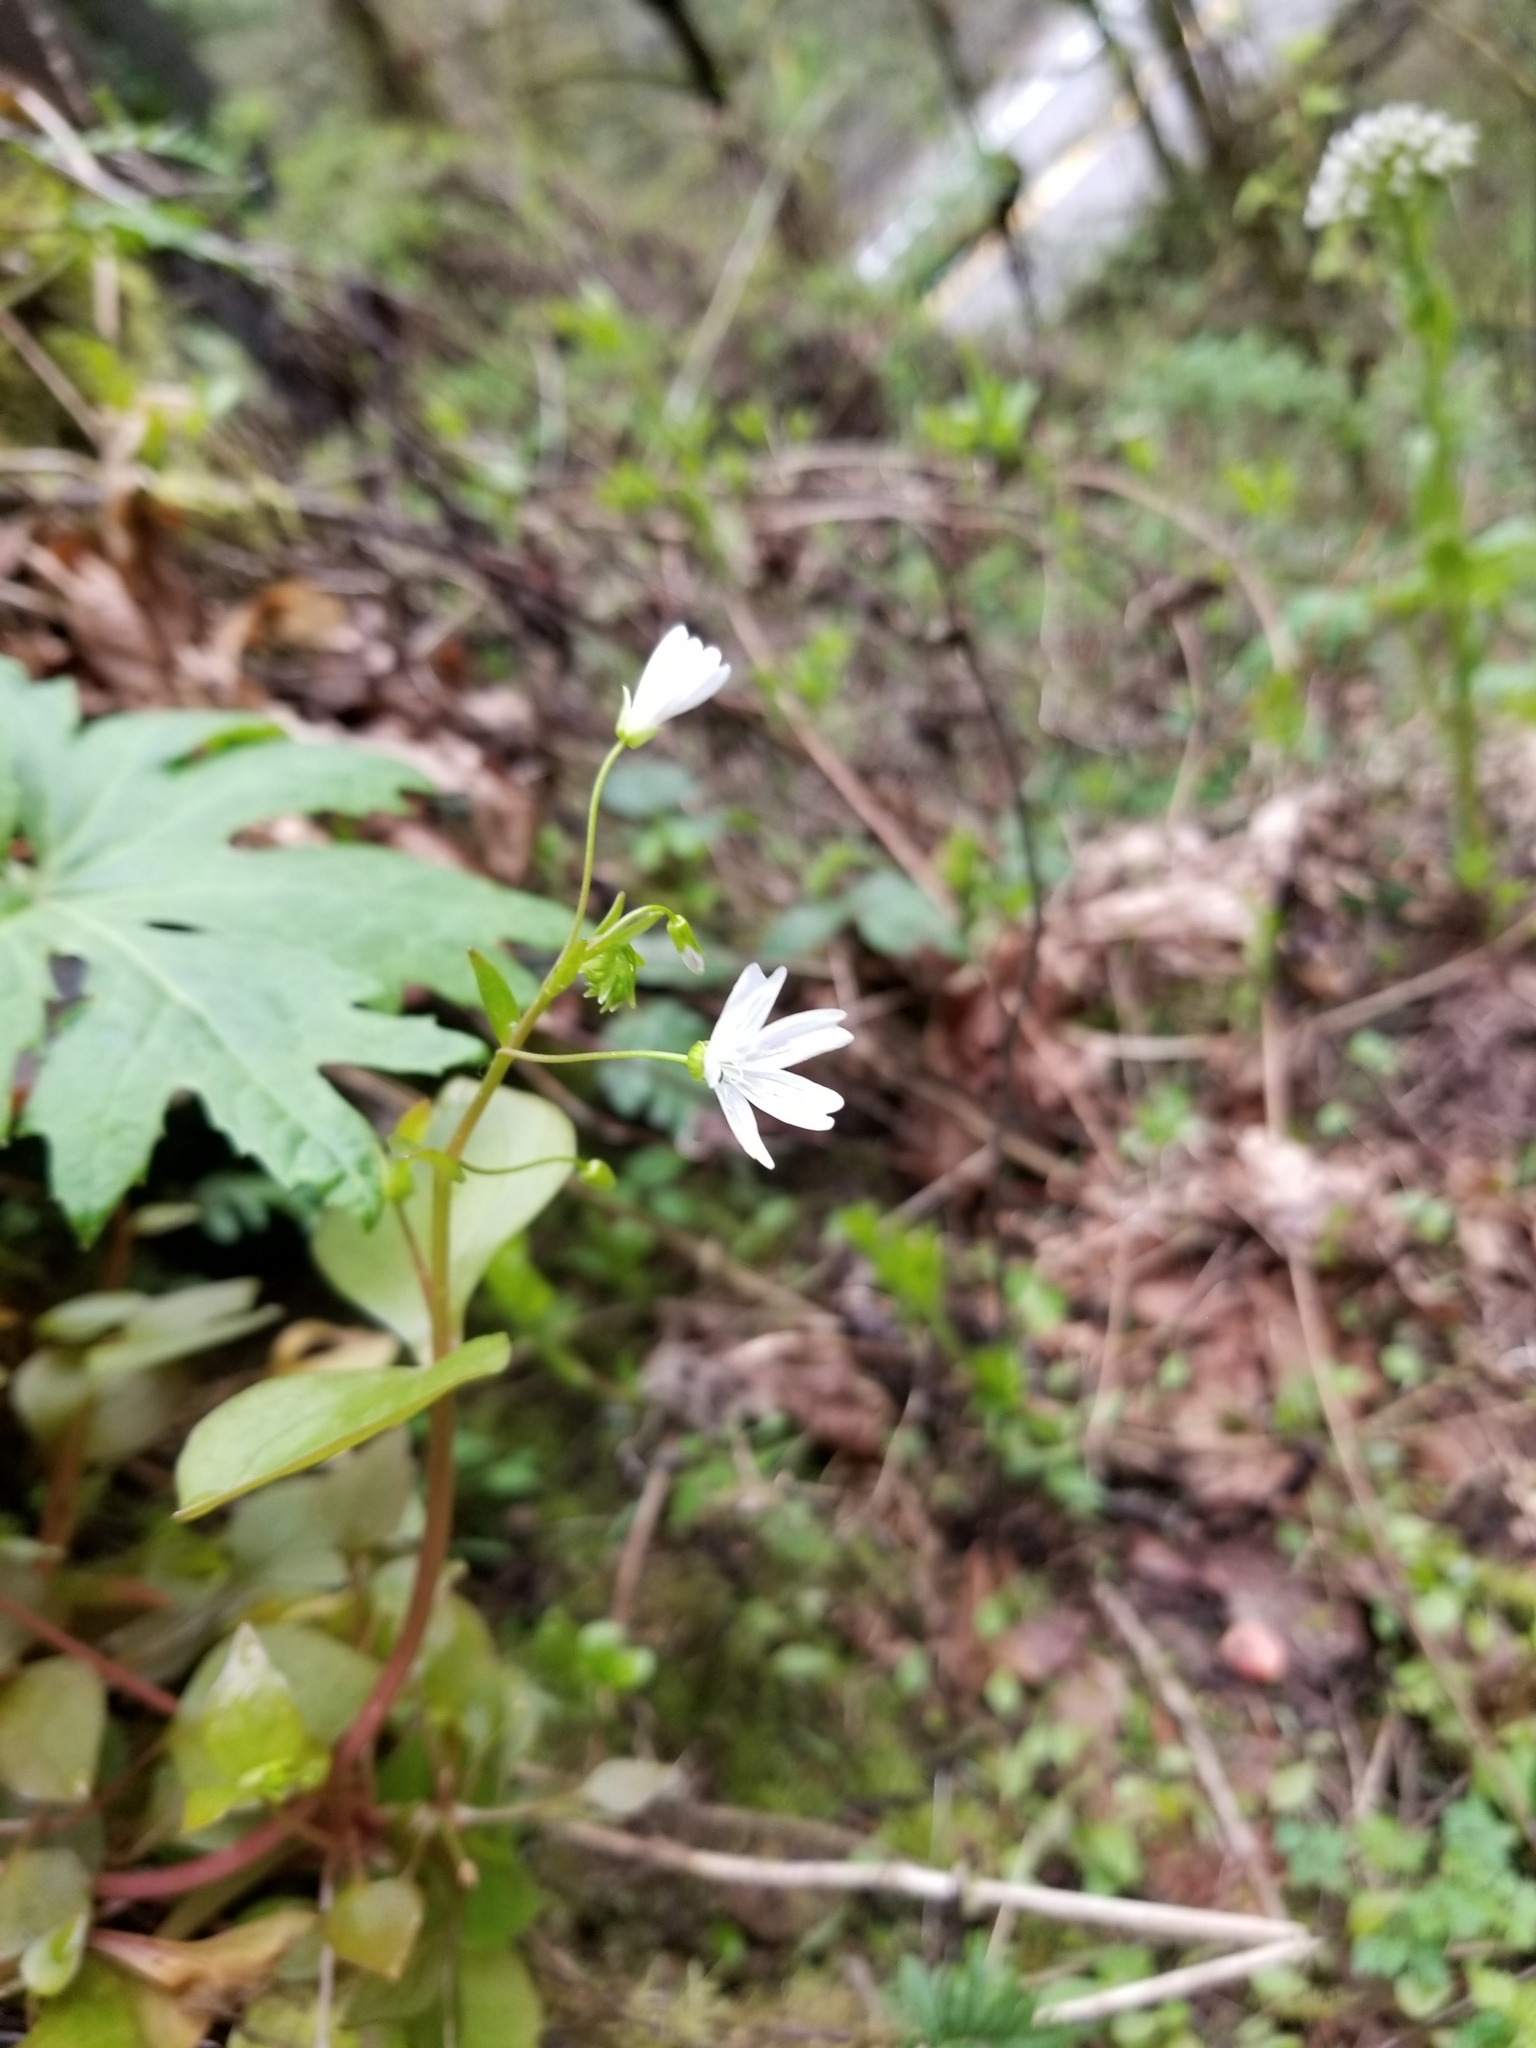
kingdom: Plantae
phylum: Tracheophyta
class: Magnoliopsida
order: Caryophyllales
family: Montiaceae
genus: Claytonia
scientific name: Claytonia sibirica
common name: Pink purslane
